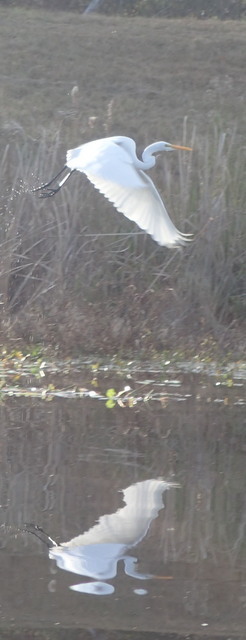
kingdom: Animalia
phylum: Chordata
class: Aves
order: Pelecaniformes
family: Ardeidae
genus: Ardea
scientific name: Ardea alba
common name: Great egret
